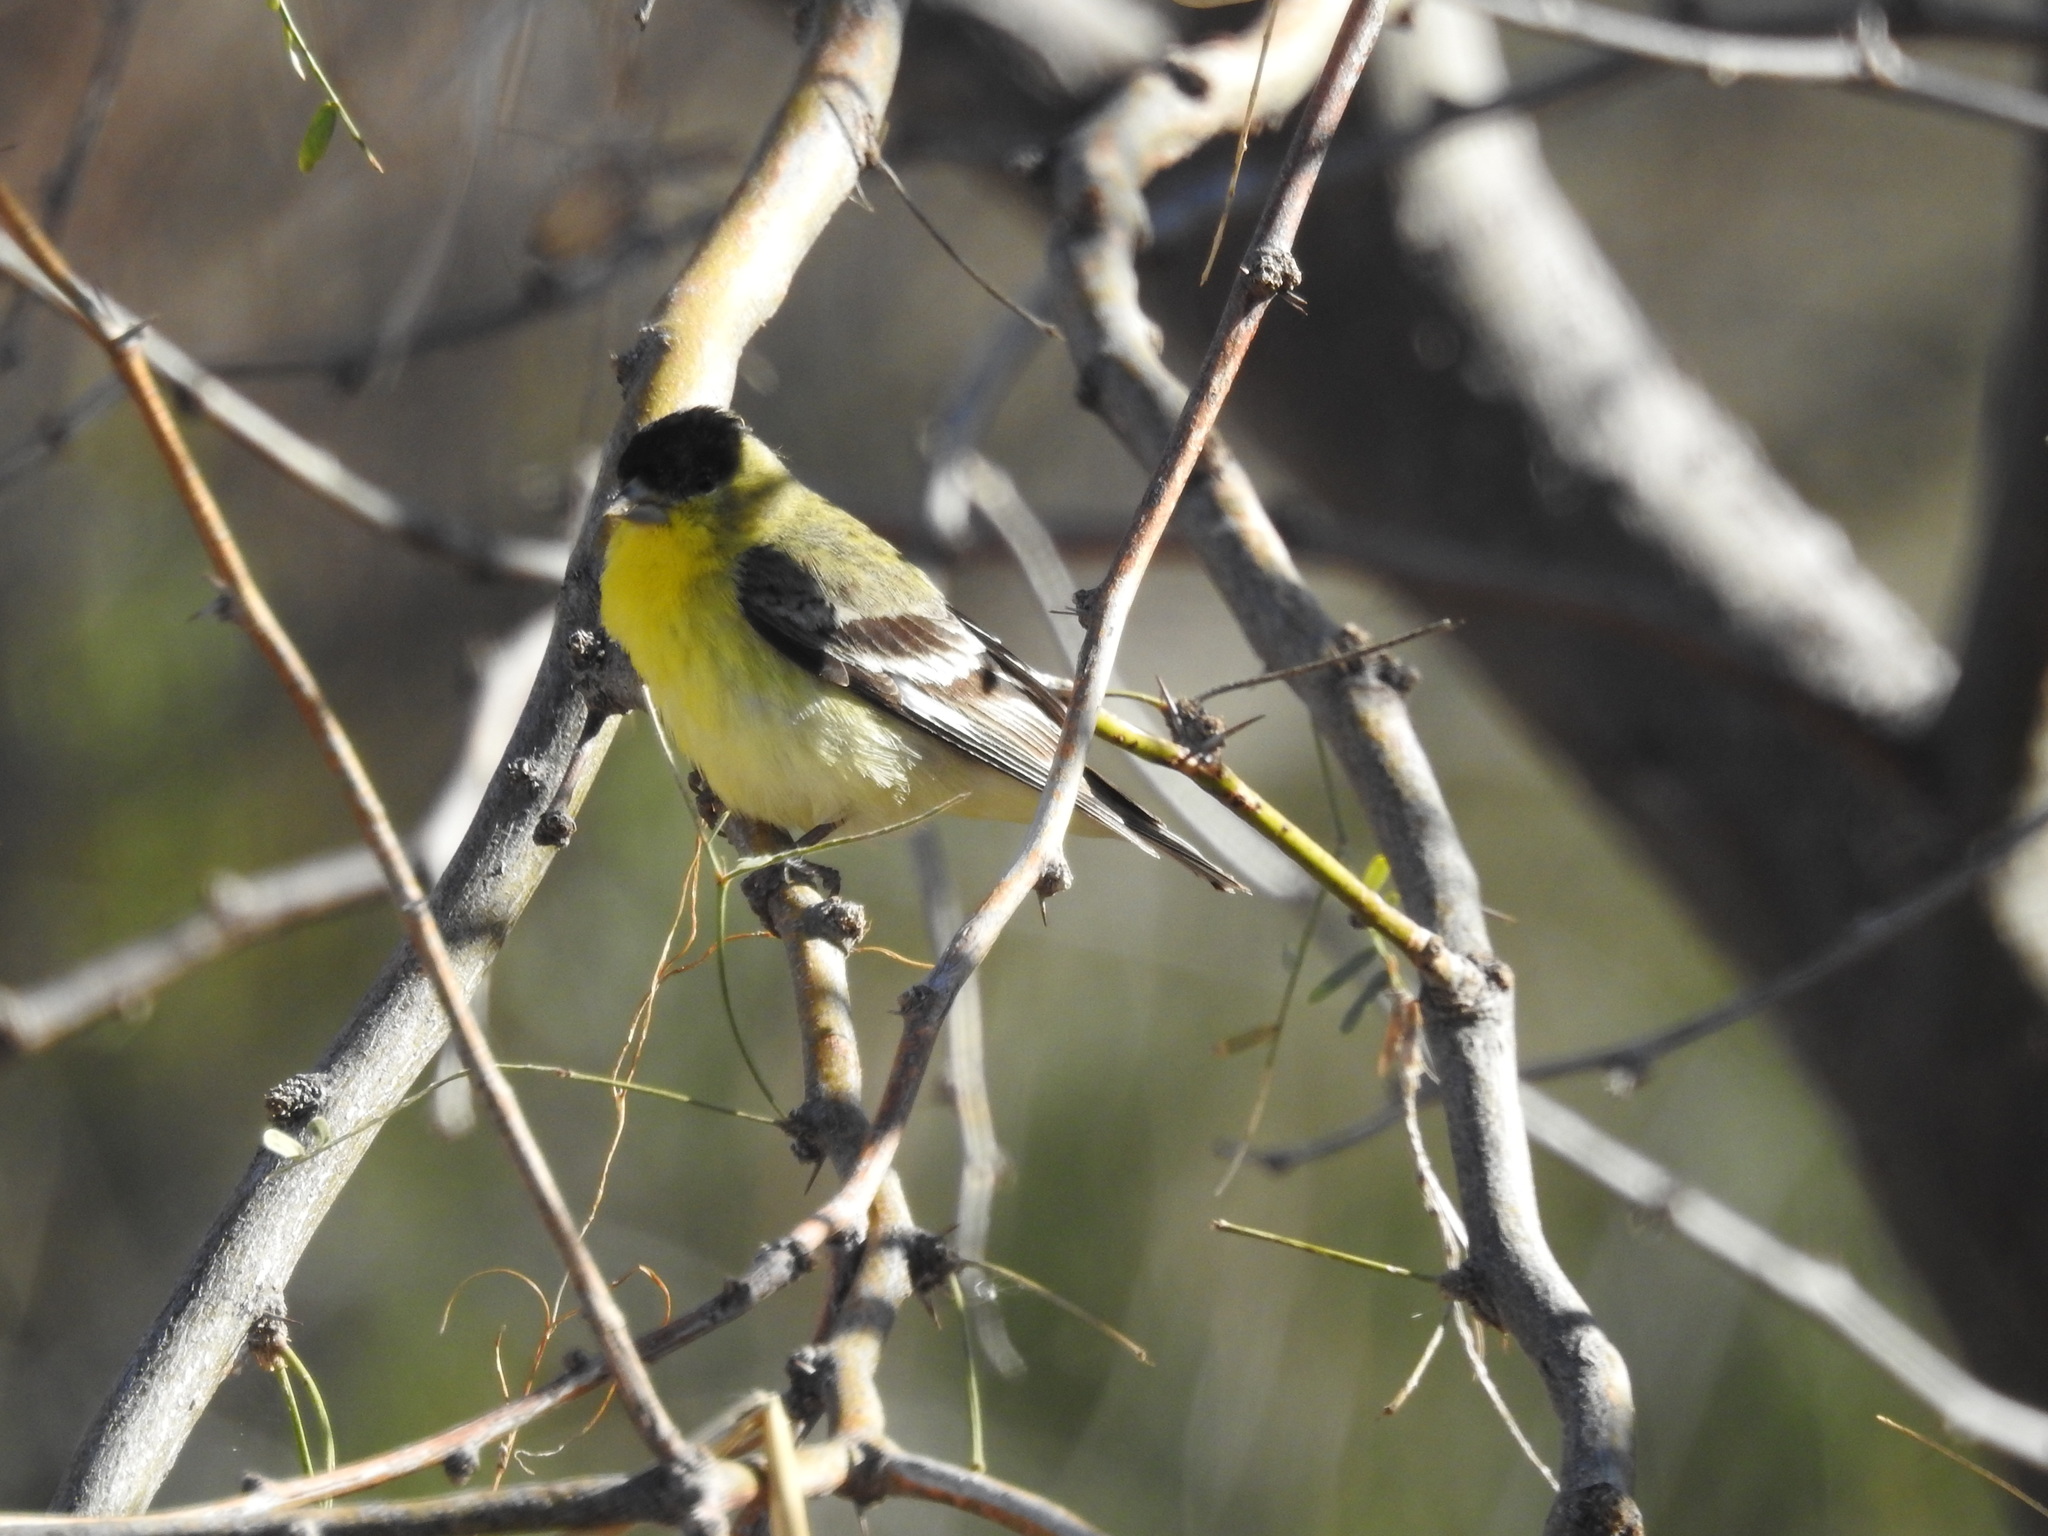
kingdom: Animalia
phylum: Chordata
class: Aves
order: Passeriformes
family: Fringillidae
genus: Spinus
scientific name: Spinus psaltria
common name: Lesser goldfinch
